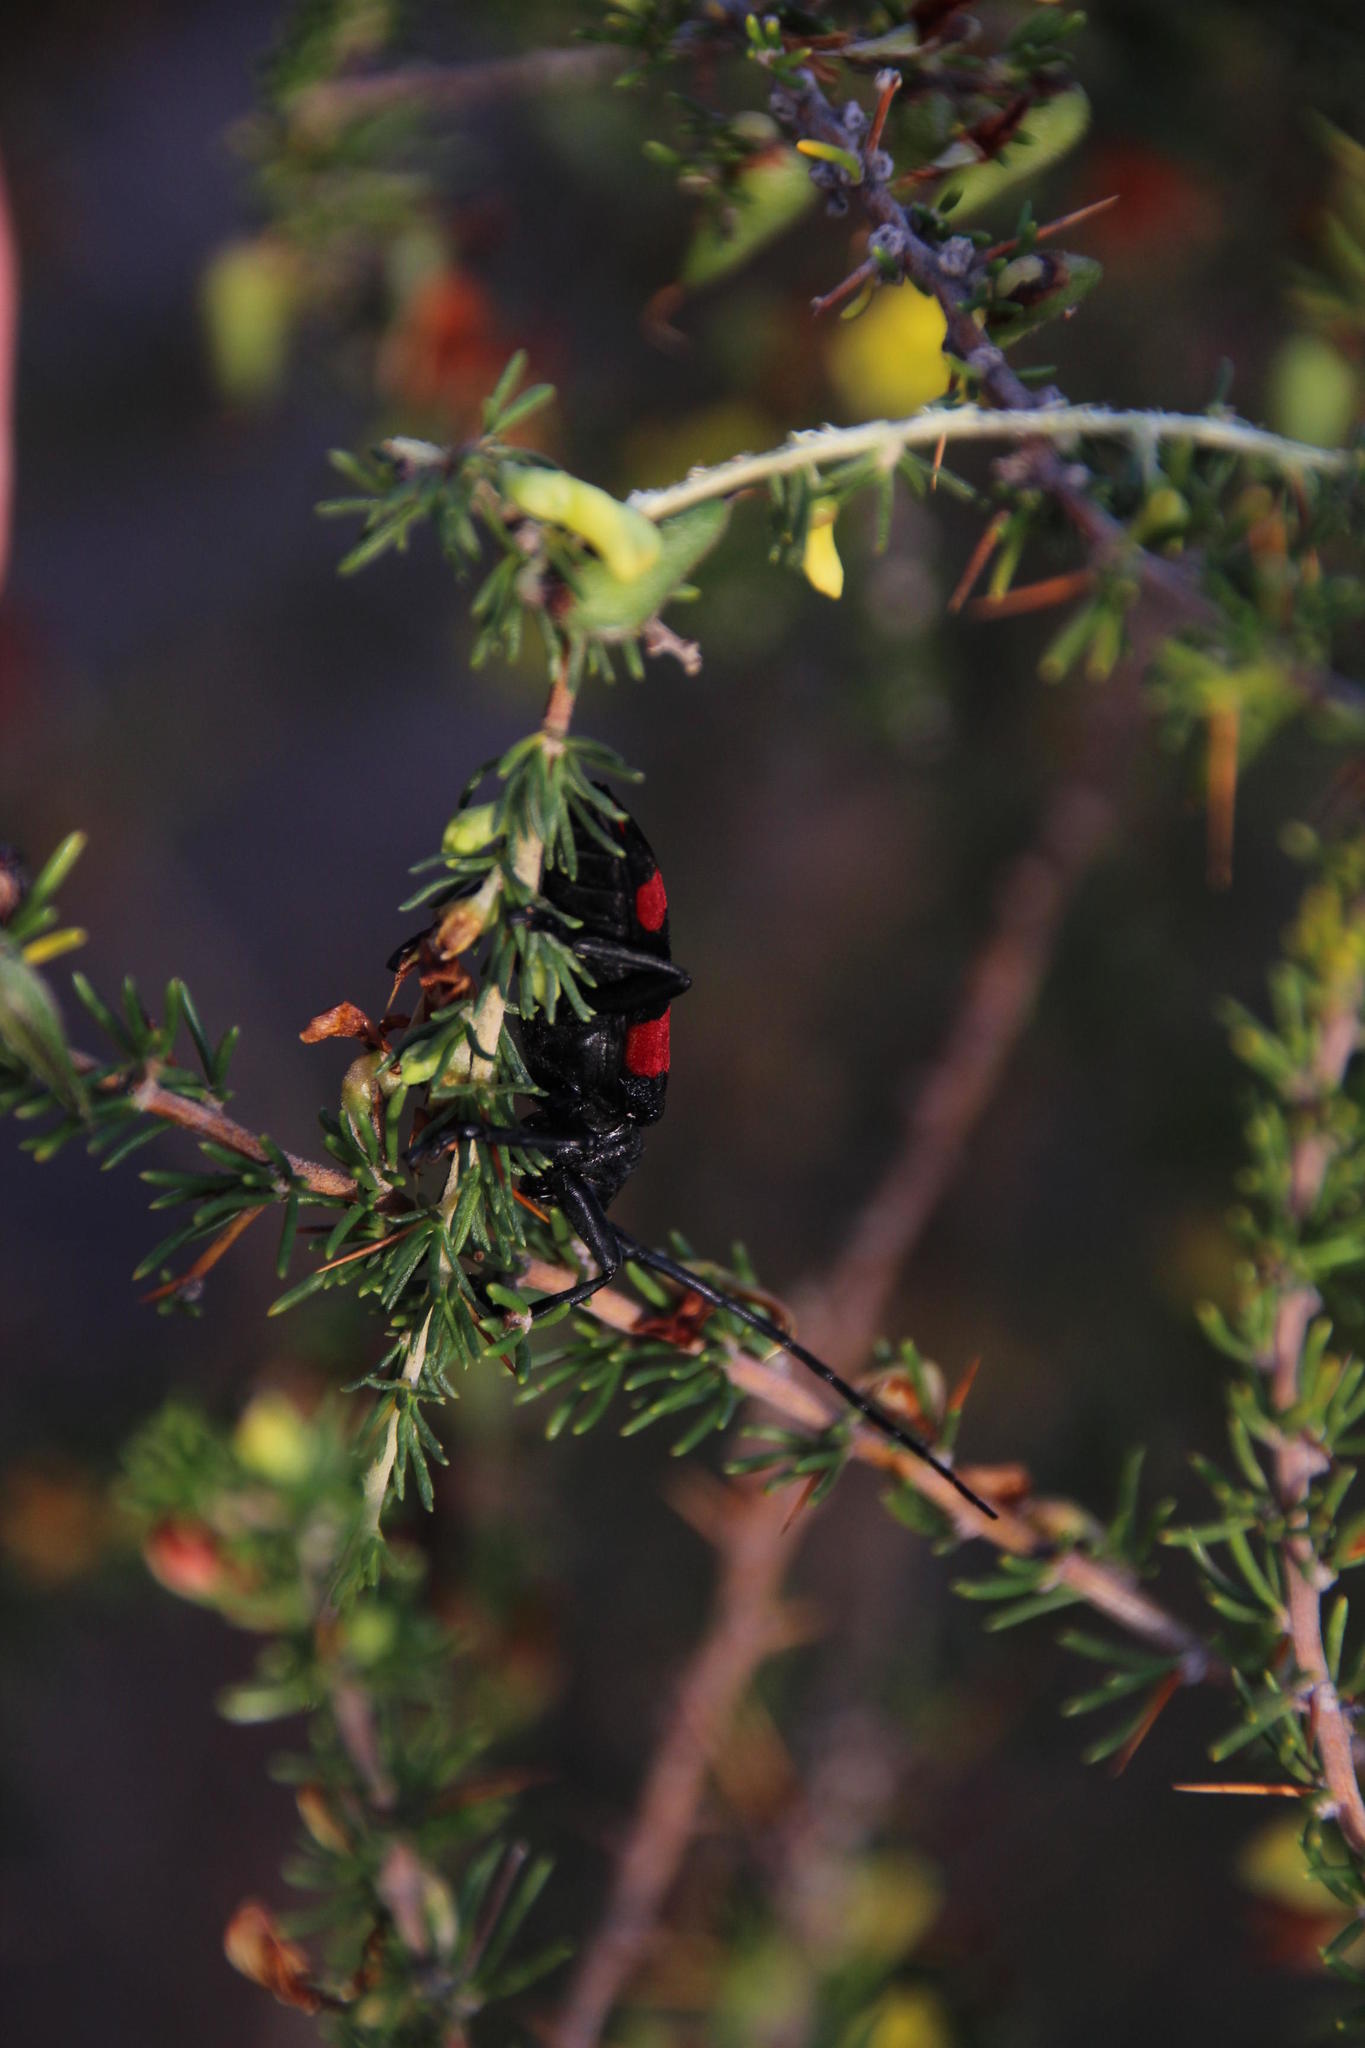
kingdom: Animalia
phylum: Arthropoda
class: Insecta
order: Coleoptera
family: Cerambycidae
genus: Ceroplesis
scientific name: Ceroplesis aethiops
